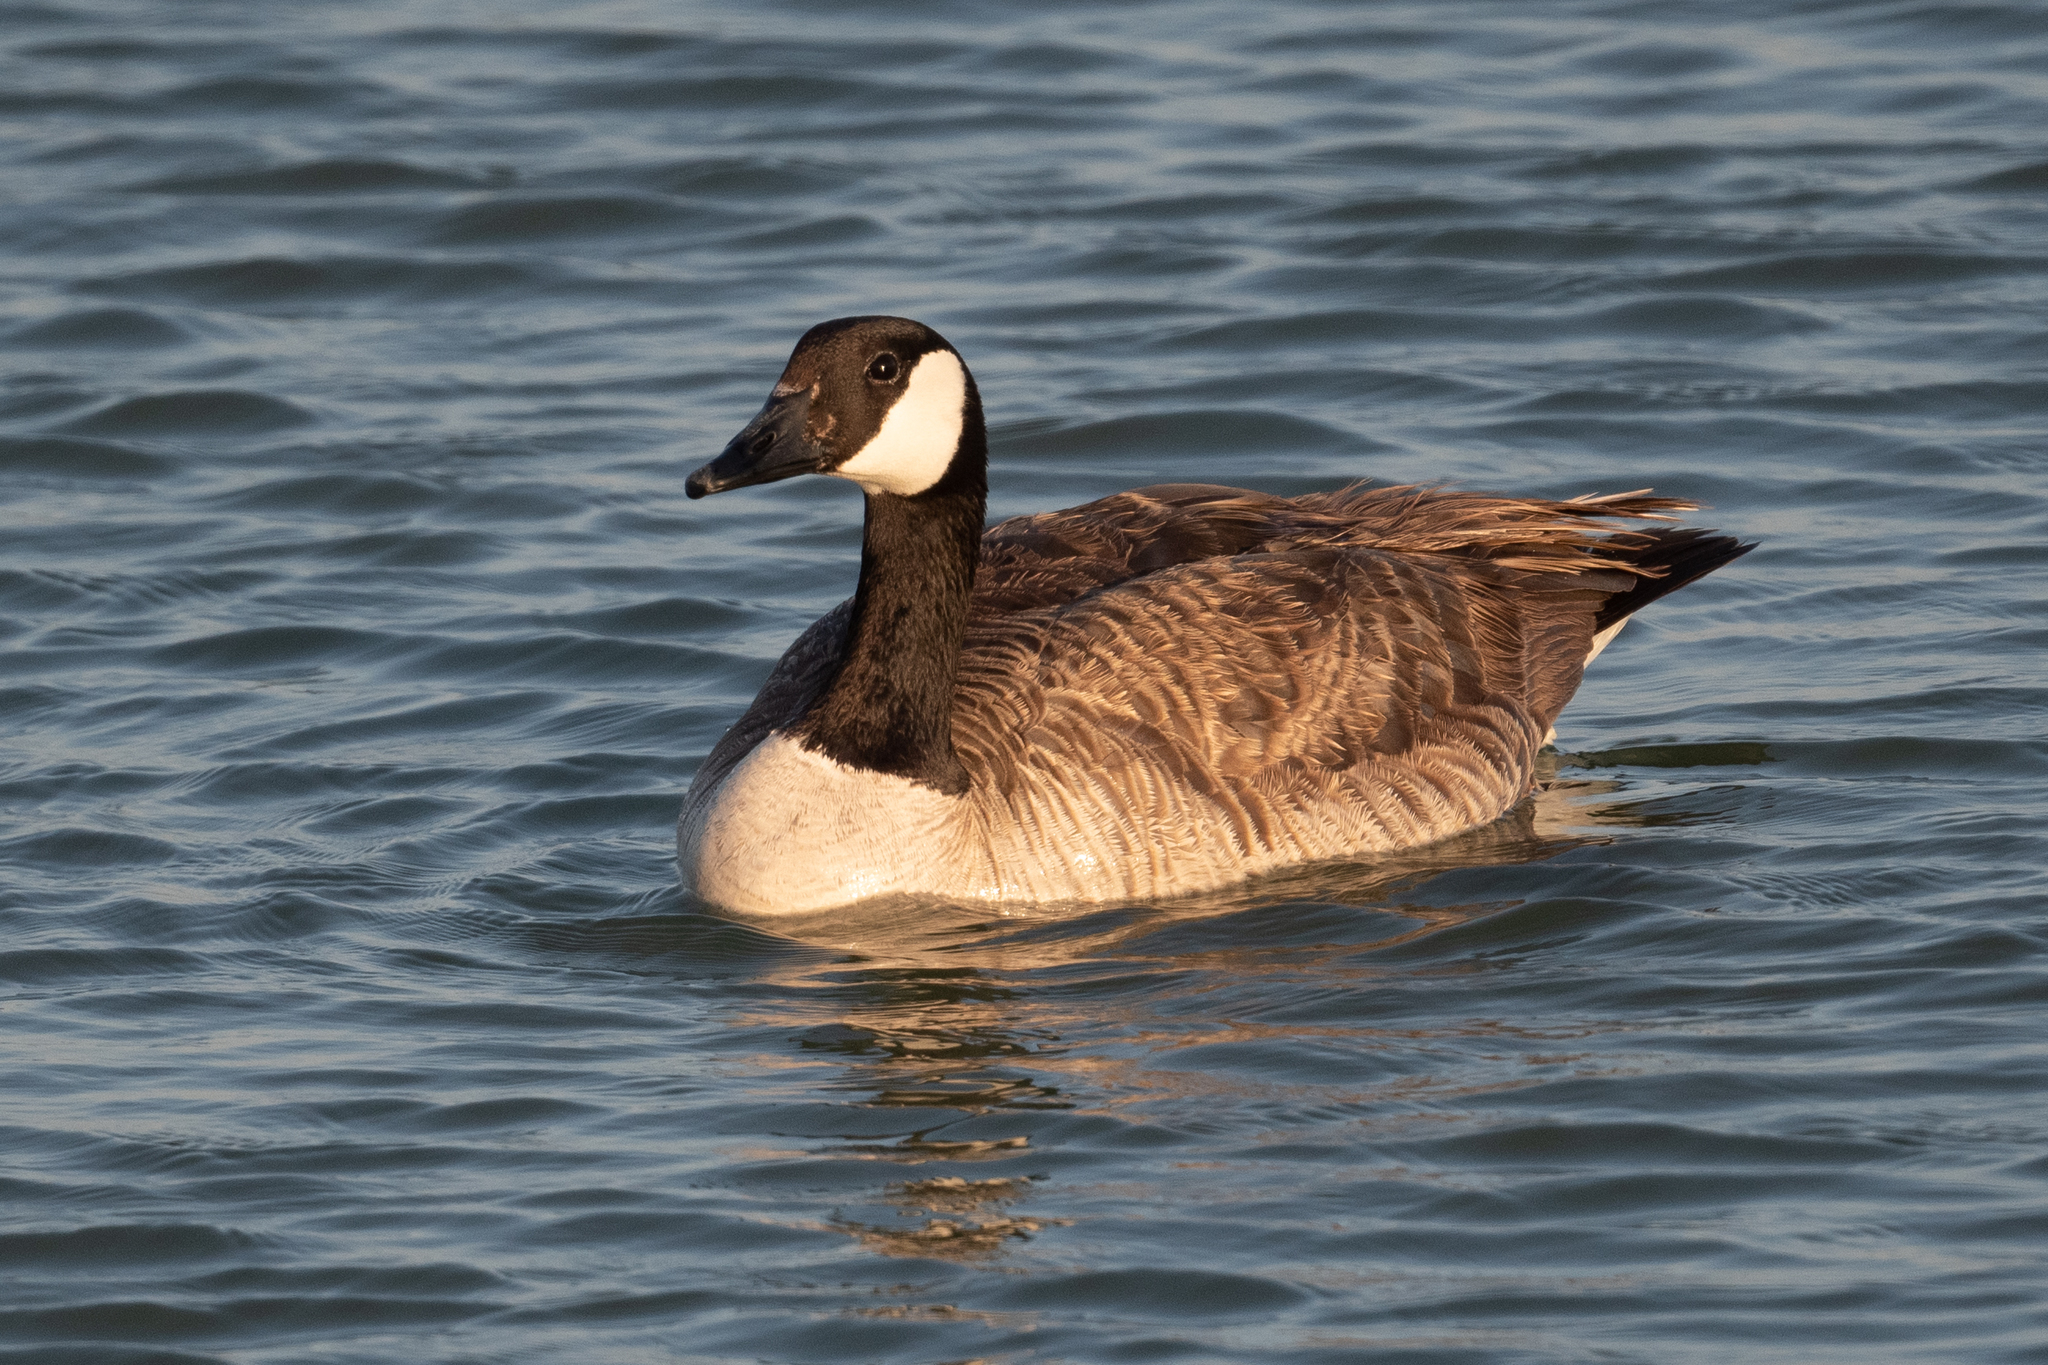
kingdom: Animalia
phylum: Chordata
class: Aves
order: Anseriformes
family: Anatidae
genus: Branta
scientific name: Branta canadensis
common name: Canada goose
